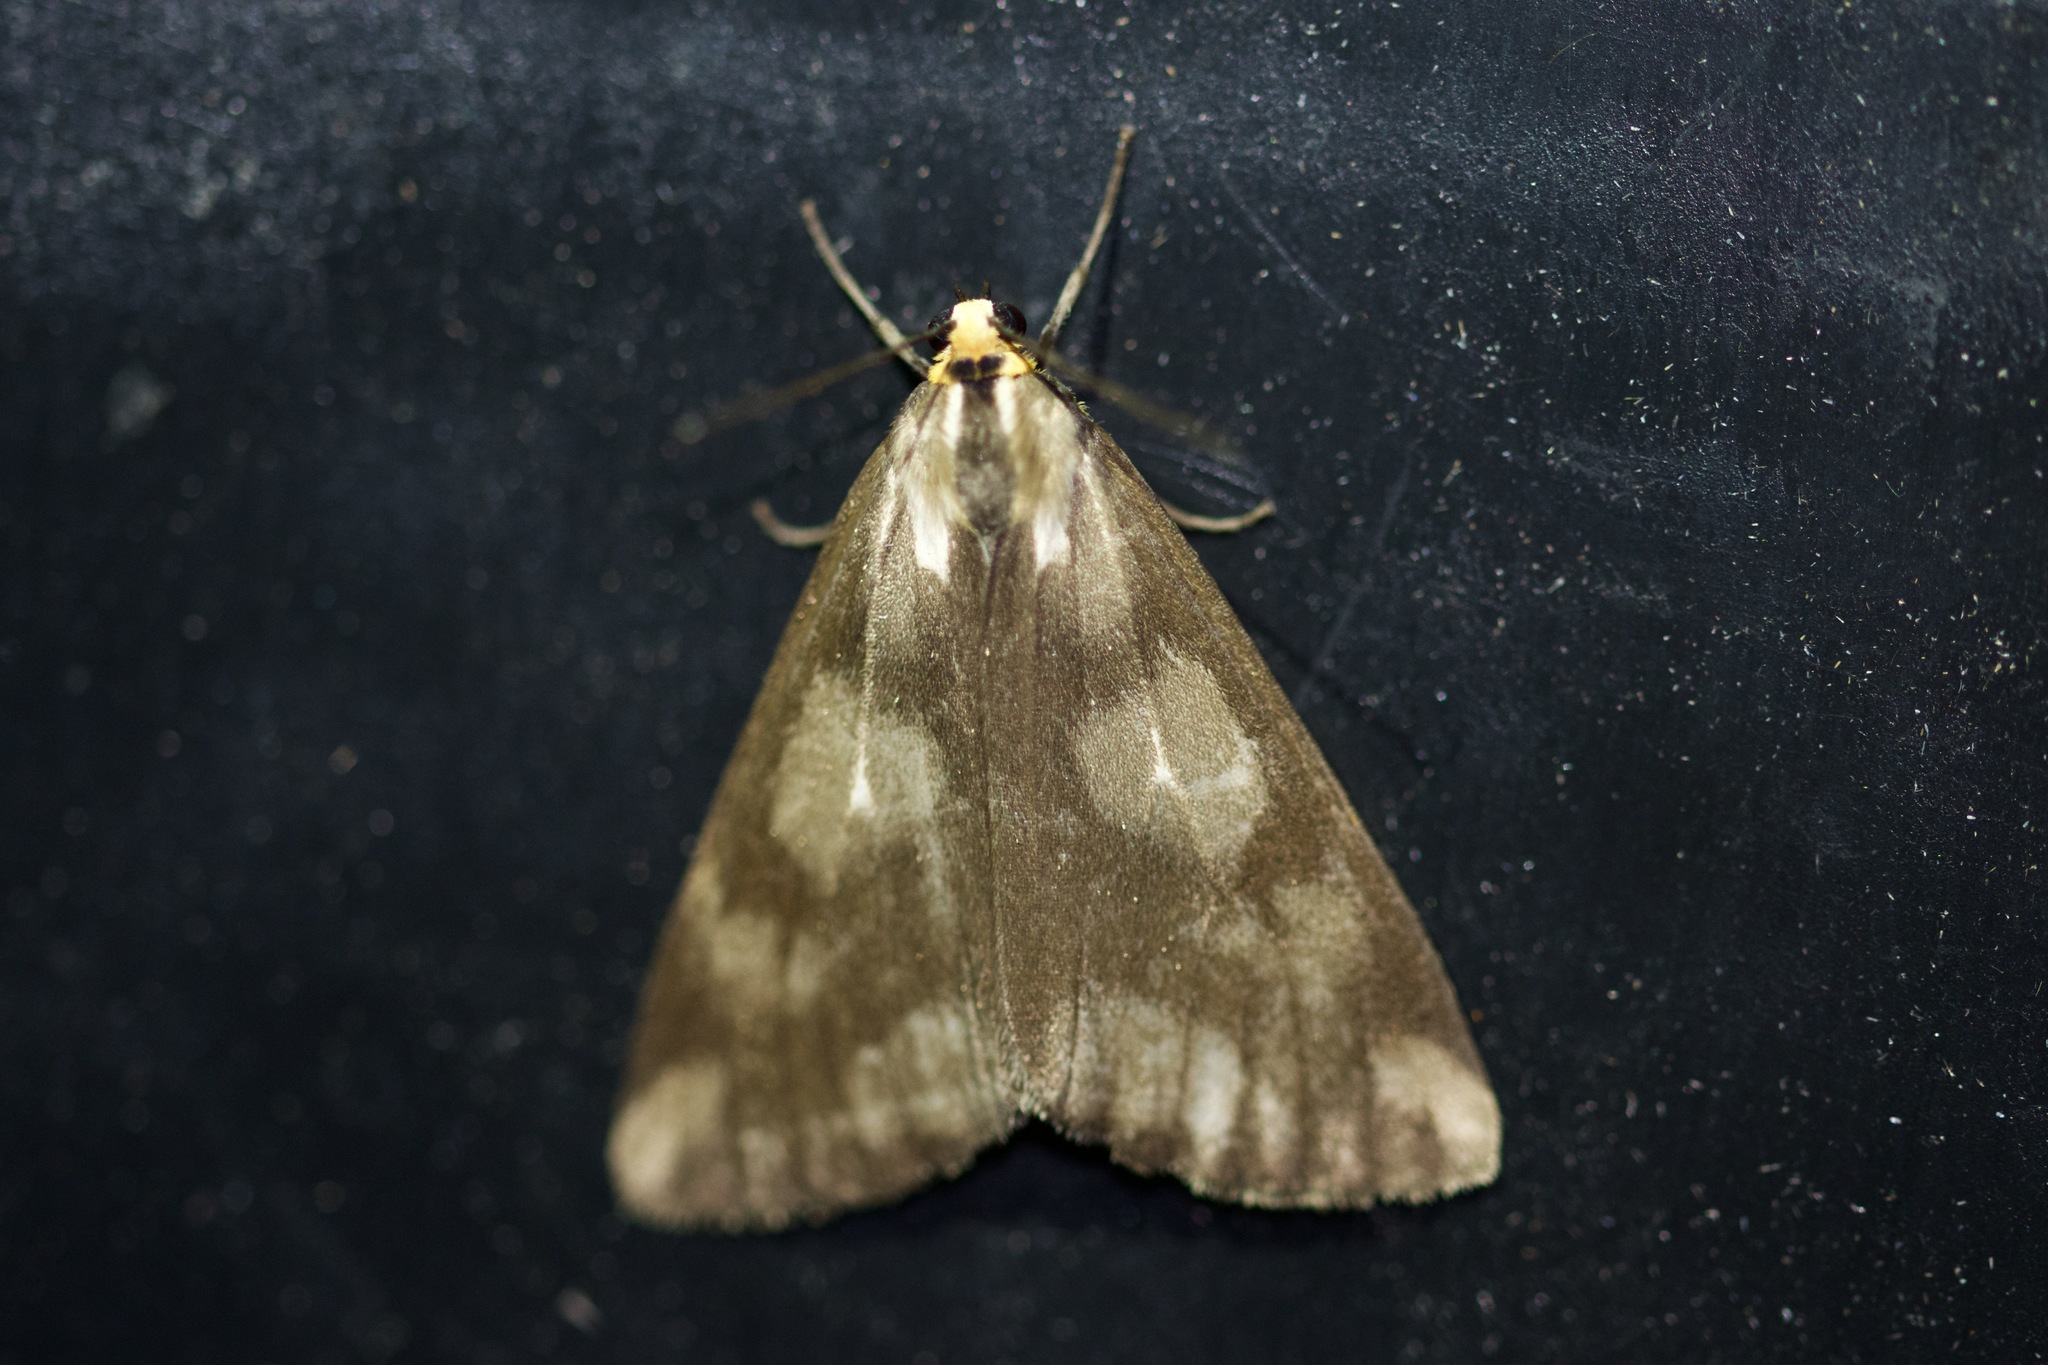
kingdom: Animalia
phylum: Arthropoda
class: Insecta
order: Lepidoptera
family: Erebidae
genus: Haploa
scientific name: Haploa lecontei
